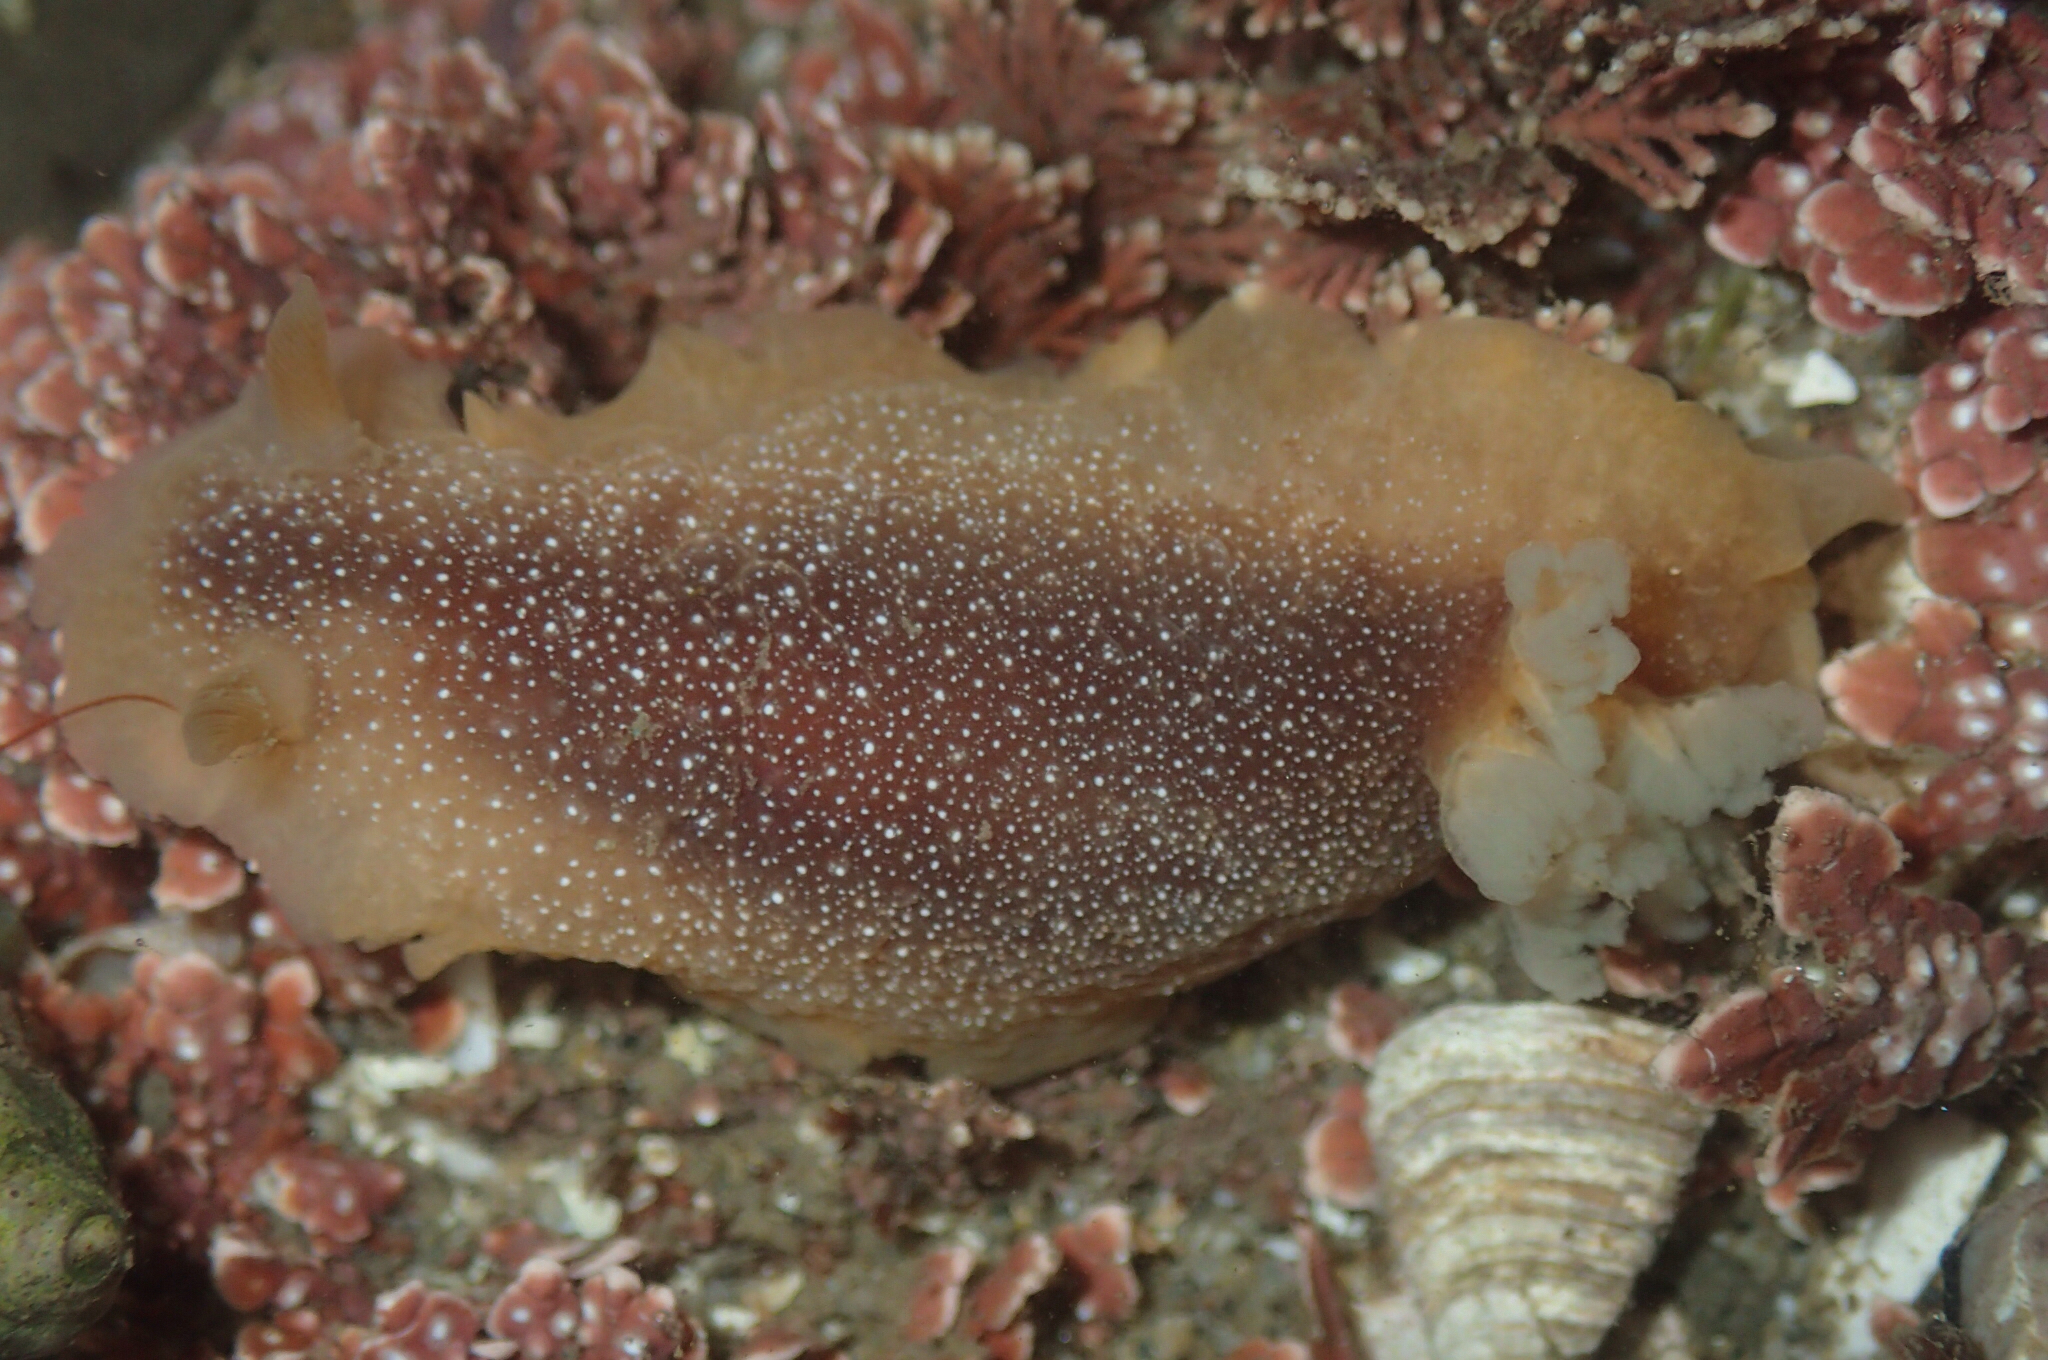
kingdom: Animalia
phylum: Mollusca
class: Gastropoda
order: Nudibranchia
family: Dendrodorididae
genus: Doriopsilla
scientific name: Doriopsilla albopunctata
